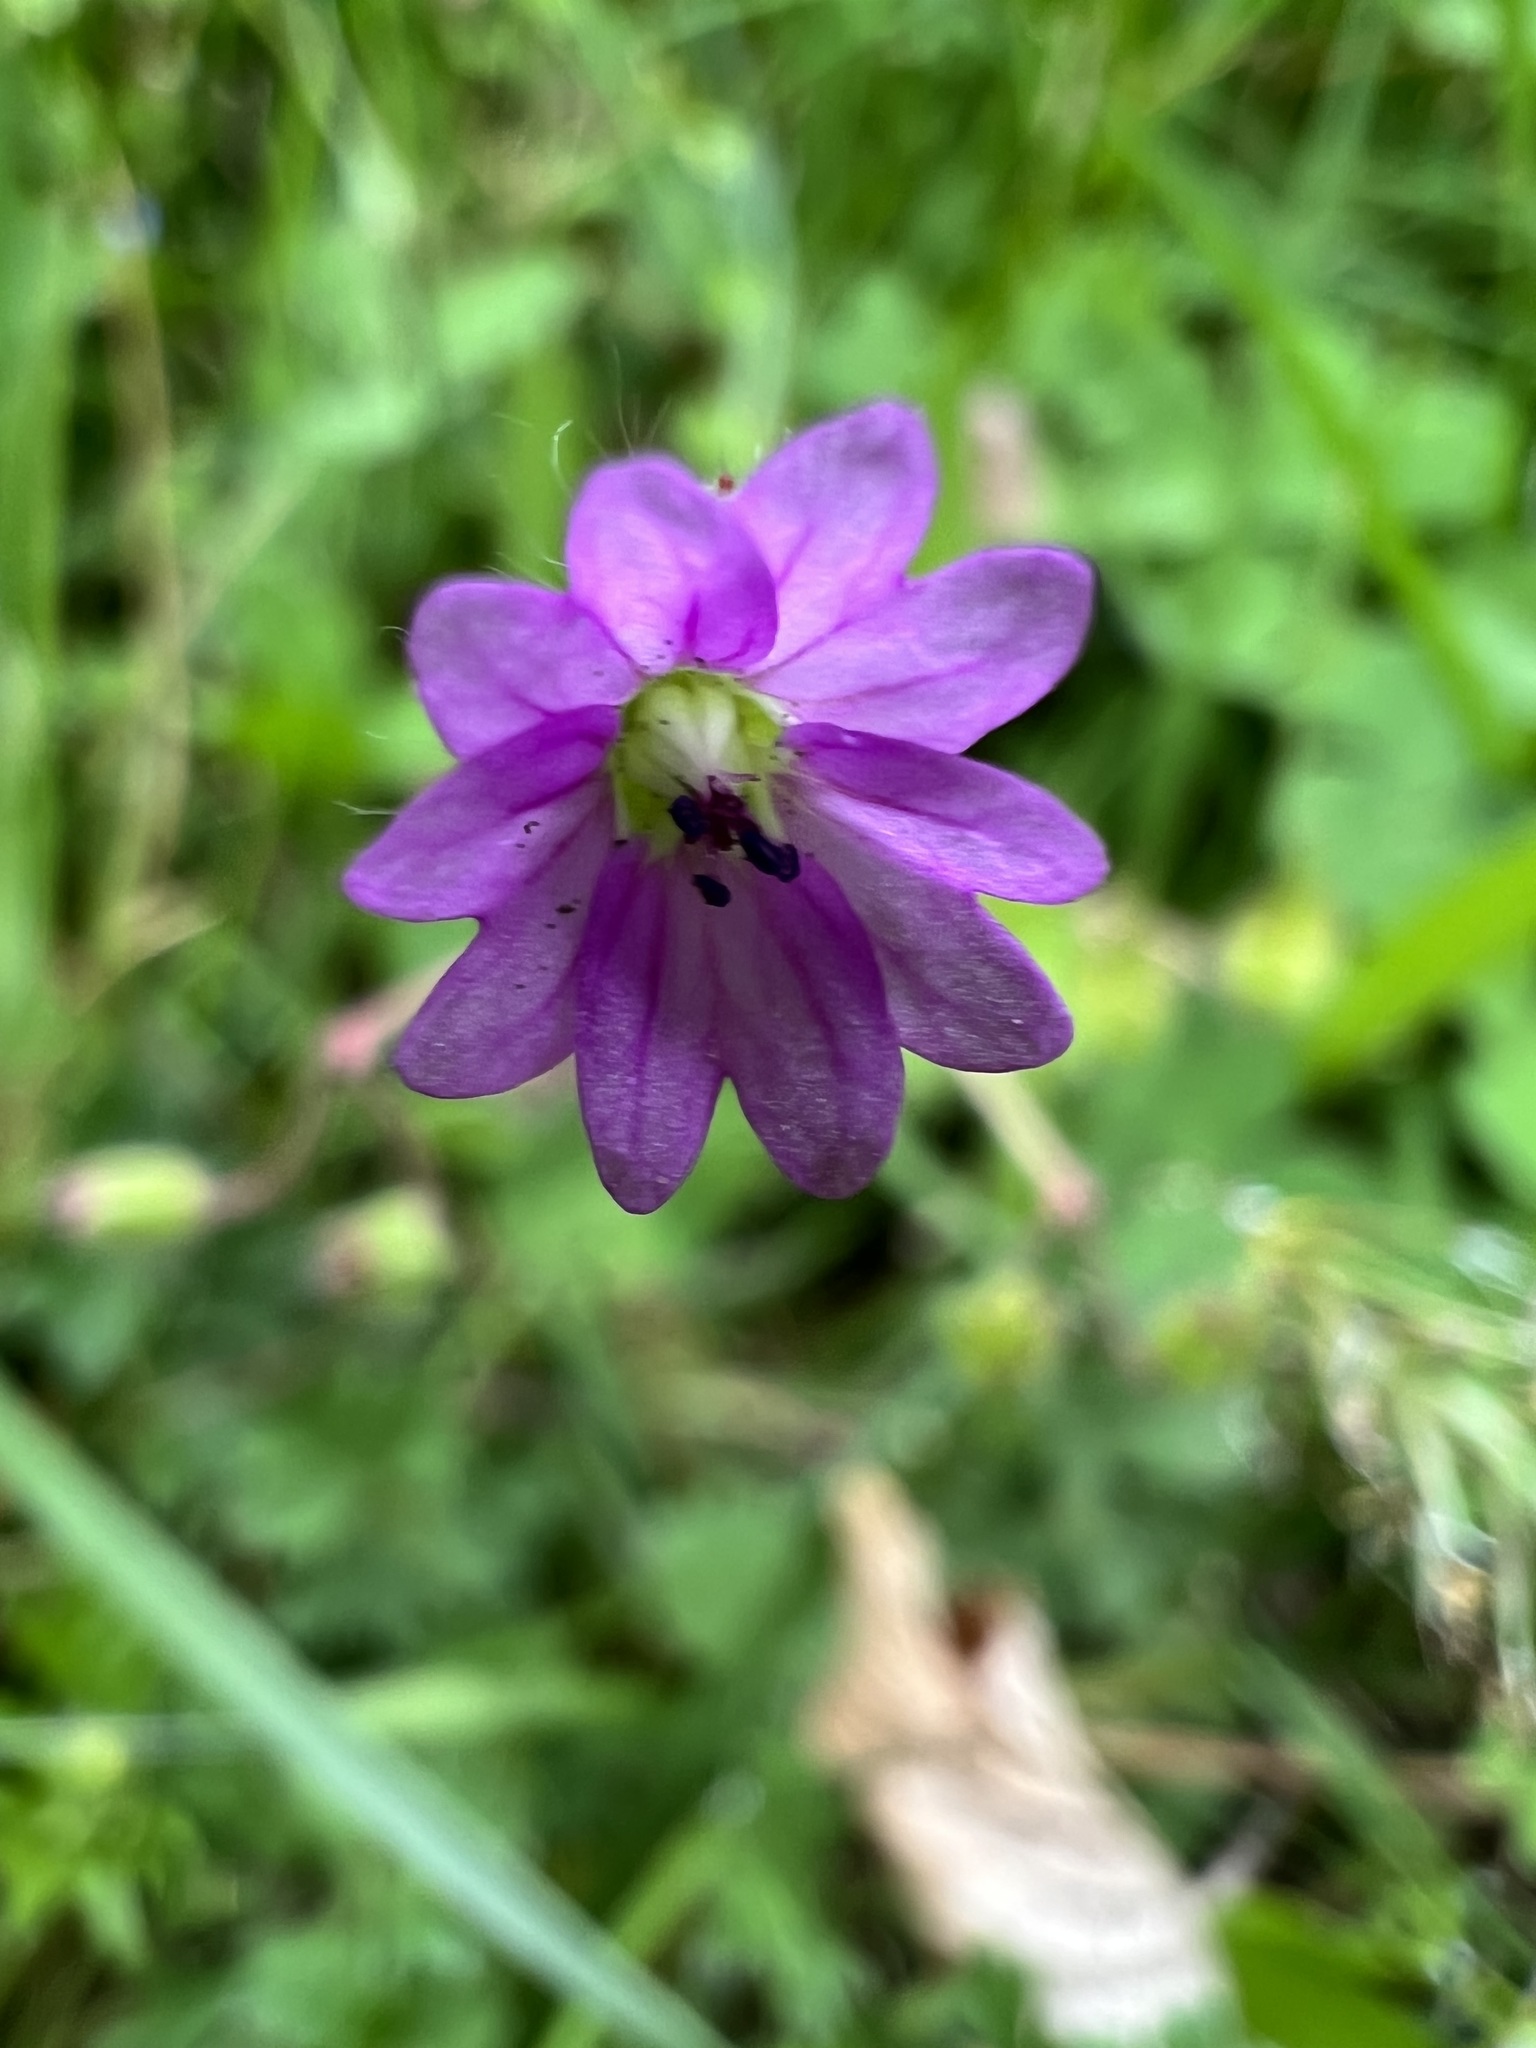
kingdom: Plantae
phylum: Tracheophyta
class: Magnoliopsida
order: Geraniales
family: Geraniaceae
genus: Geranium
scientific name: Geranium molle
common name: Dove's-foot crane's-bill
